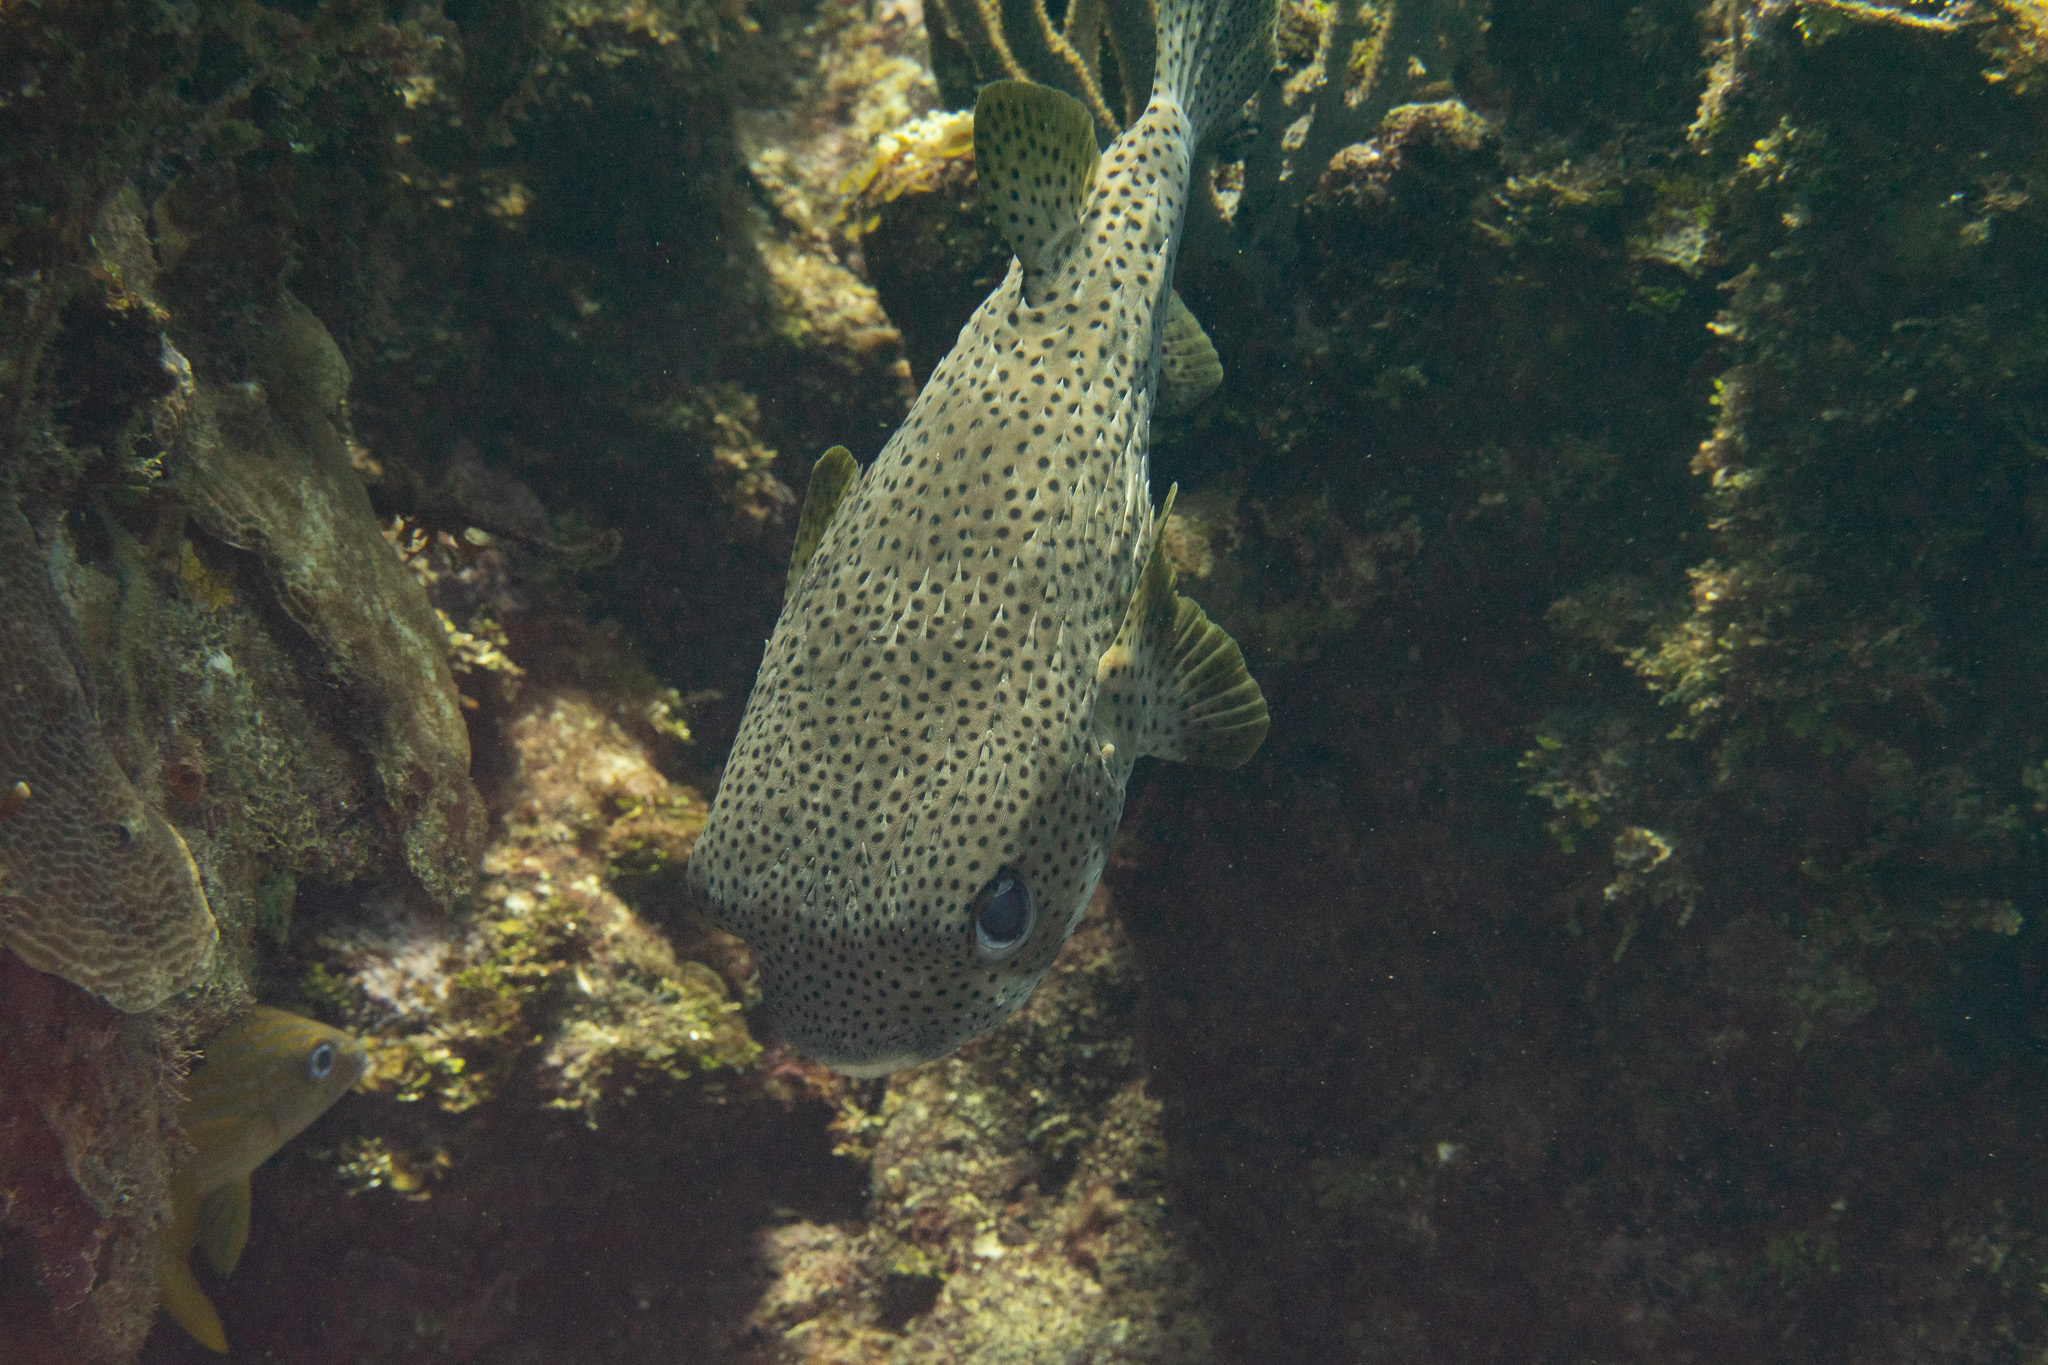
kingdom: Animalia
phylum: Chordata
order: Tetraodontiformes
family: Diodontidae
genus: Diodon
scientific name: Diodon hystrix
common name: Giant porcupinefish
